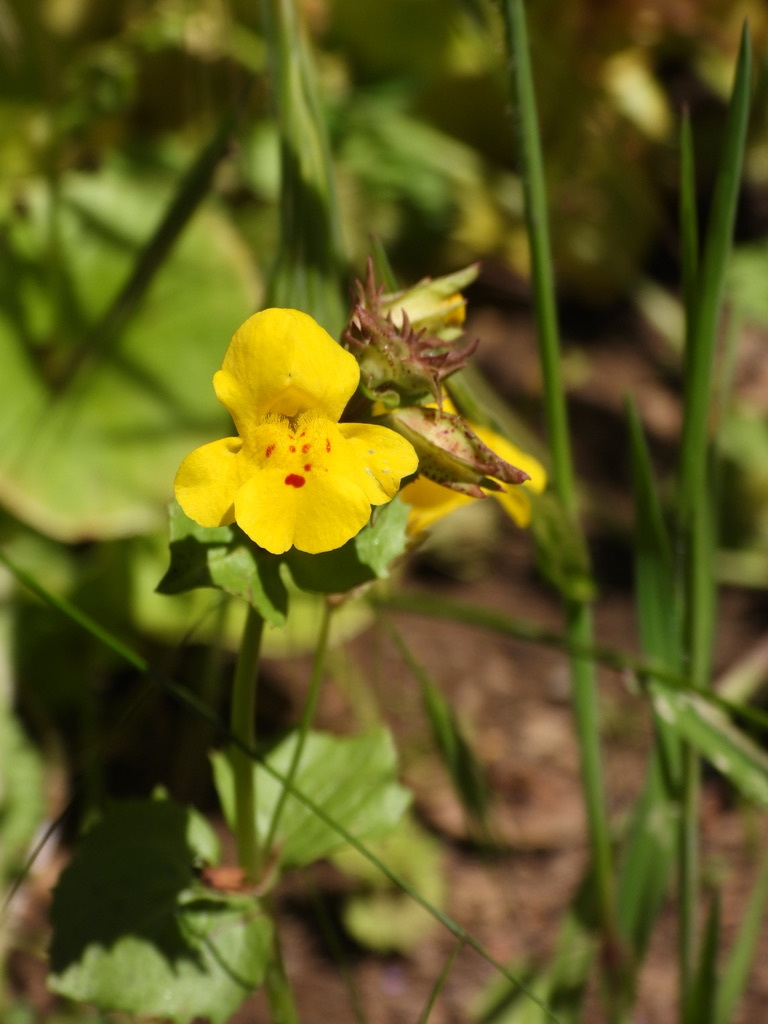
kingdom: Plantae
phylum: Tracheophyta
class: Magnoliopsida
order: Lamiales
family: Phrymaceae
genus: Erythranthe
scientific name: Erythranthe guttata
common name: Monkeyflower
